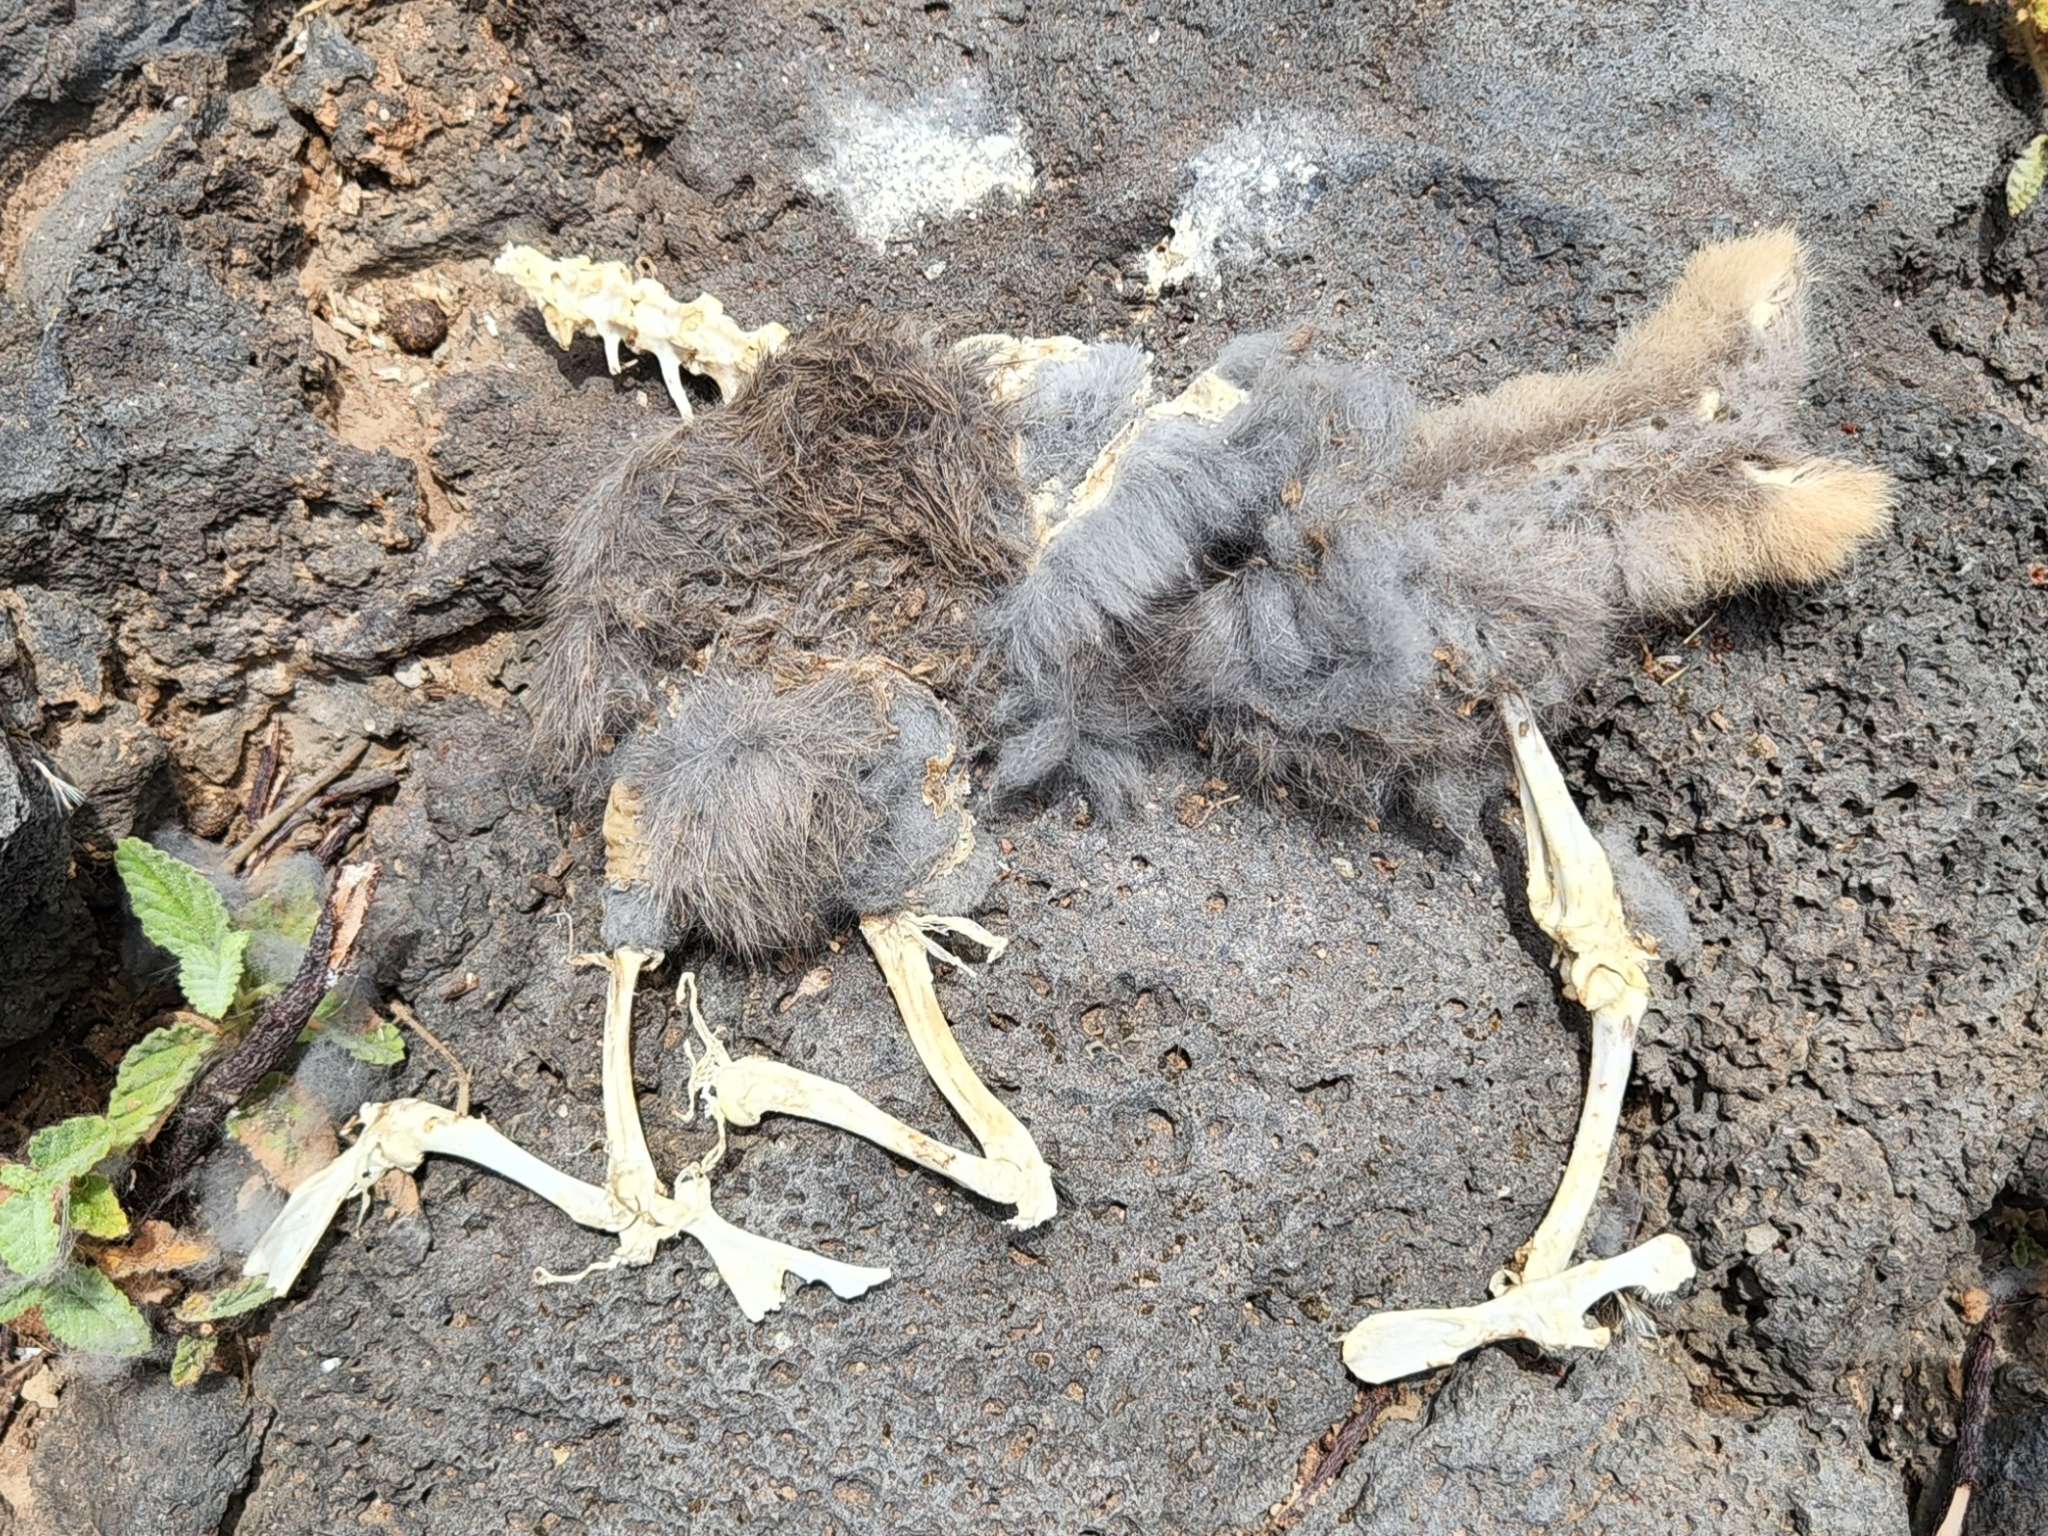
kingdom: Animalia
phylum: Chordata
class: Mammalia
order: Lagomorpha
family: Leporidae
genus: Oryctolagus
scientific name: Oryctolagus cuniculus
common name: European rabbit
